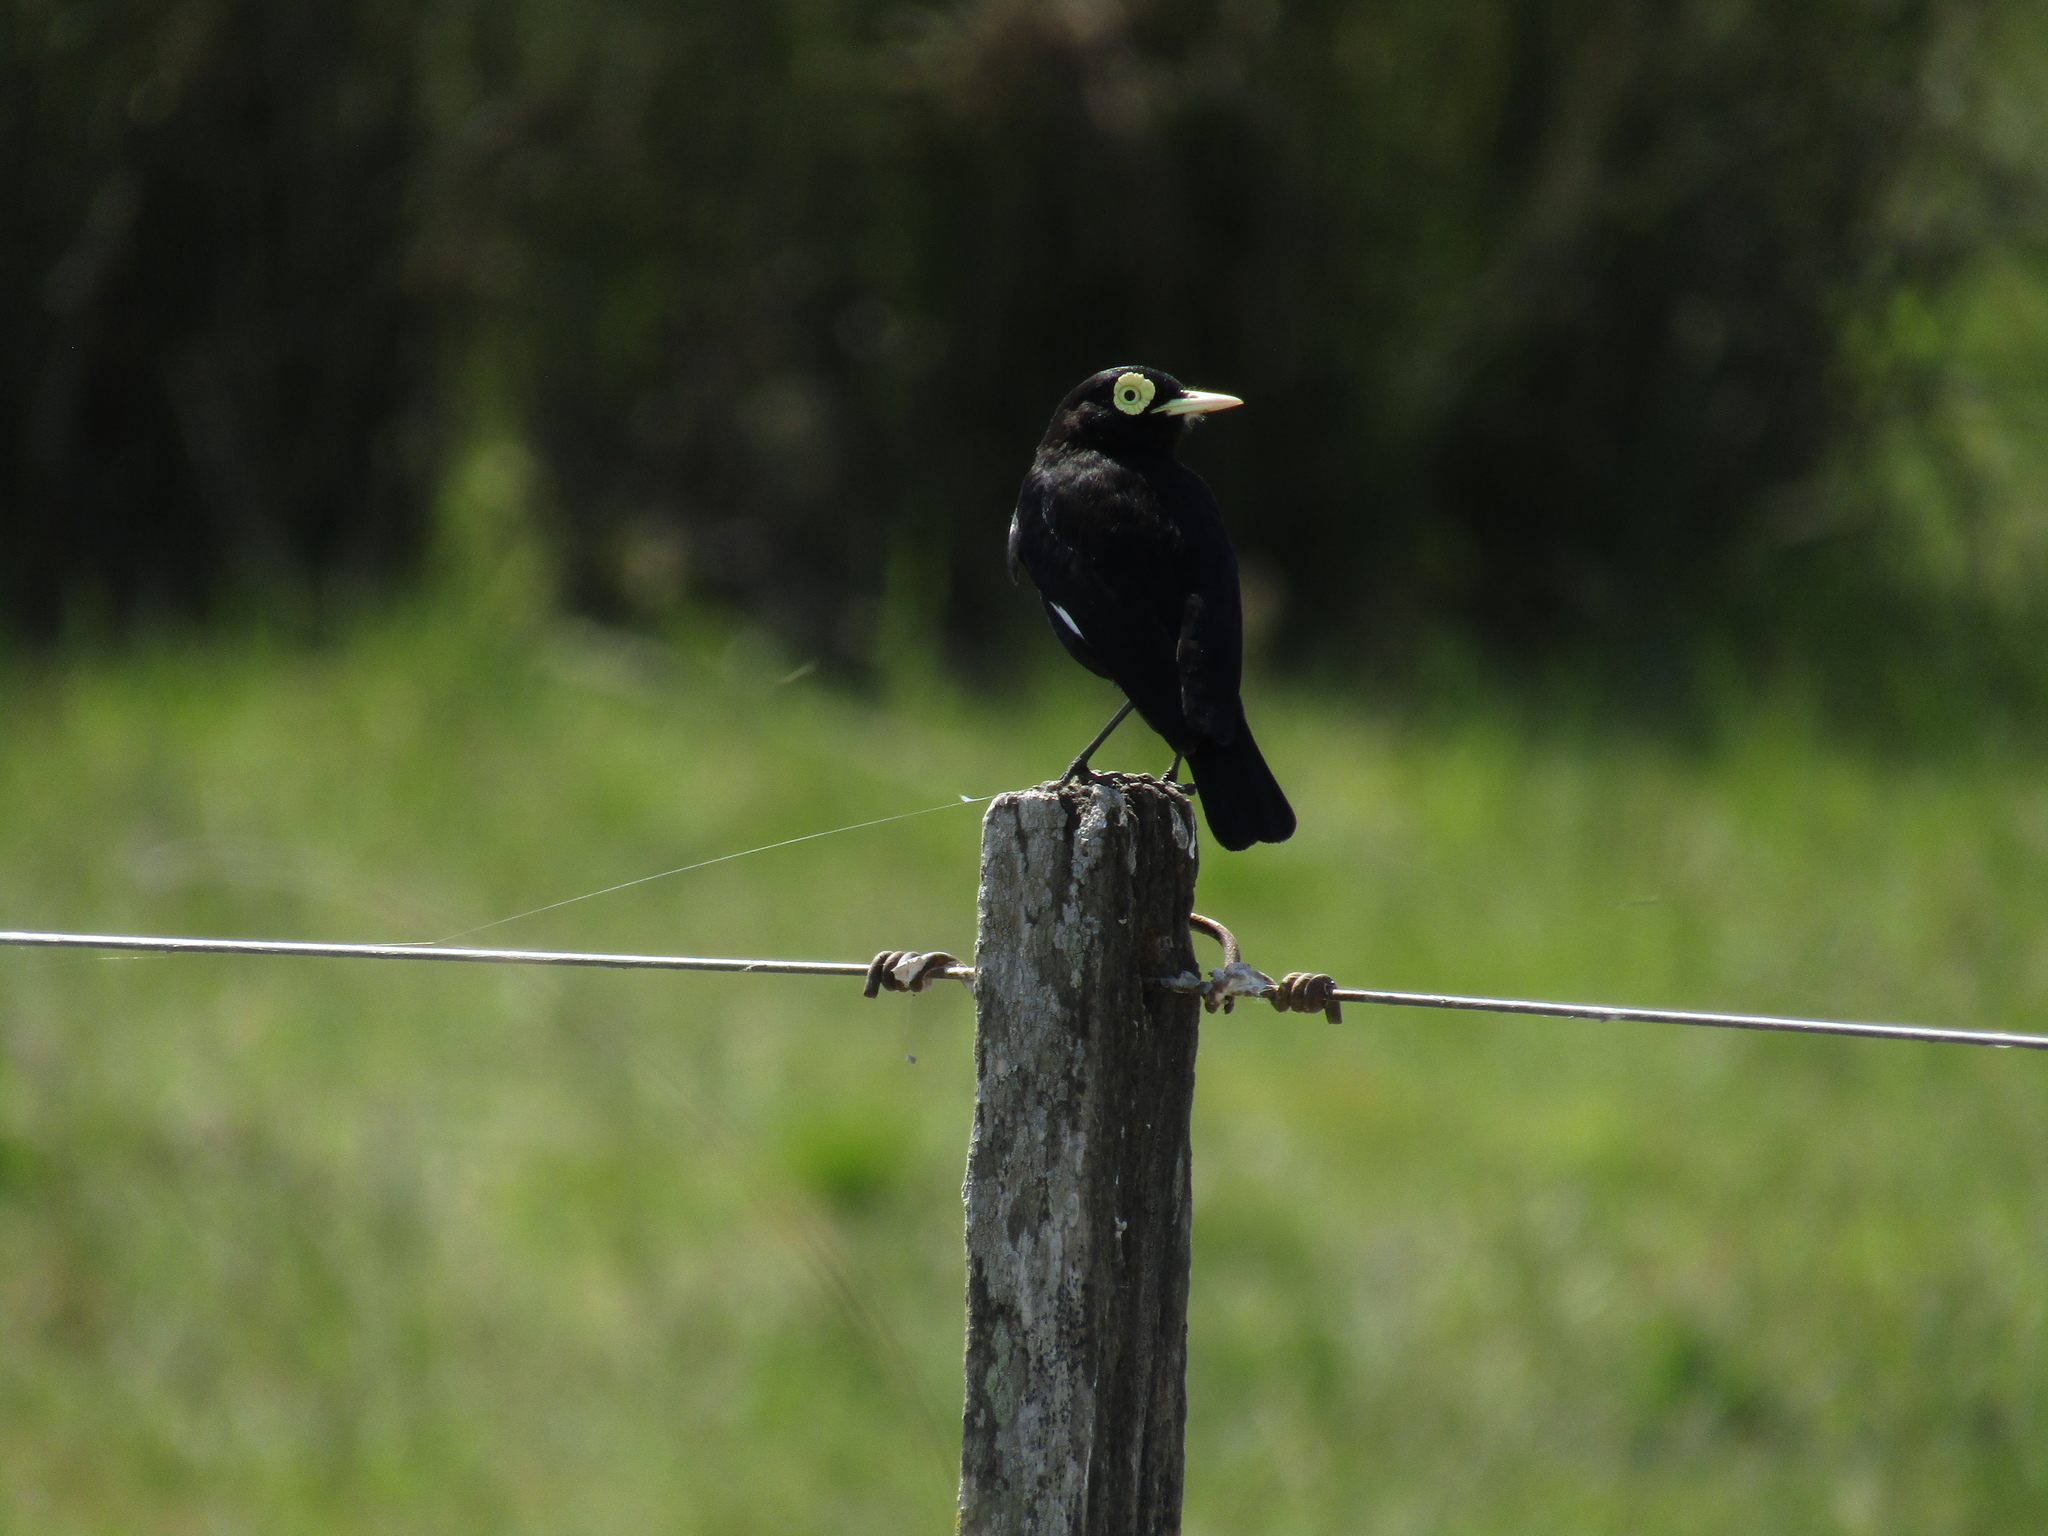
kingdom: Animalia
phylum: Chordata
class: Aves
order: Passeriformes
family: Tyrannidae
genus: Hymenops
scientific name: Hymenops perspicillatus
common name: Spectacled tyrant
